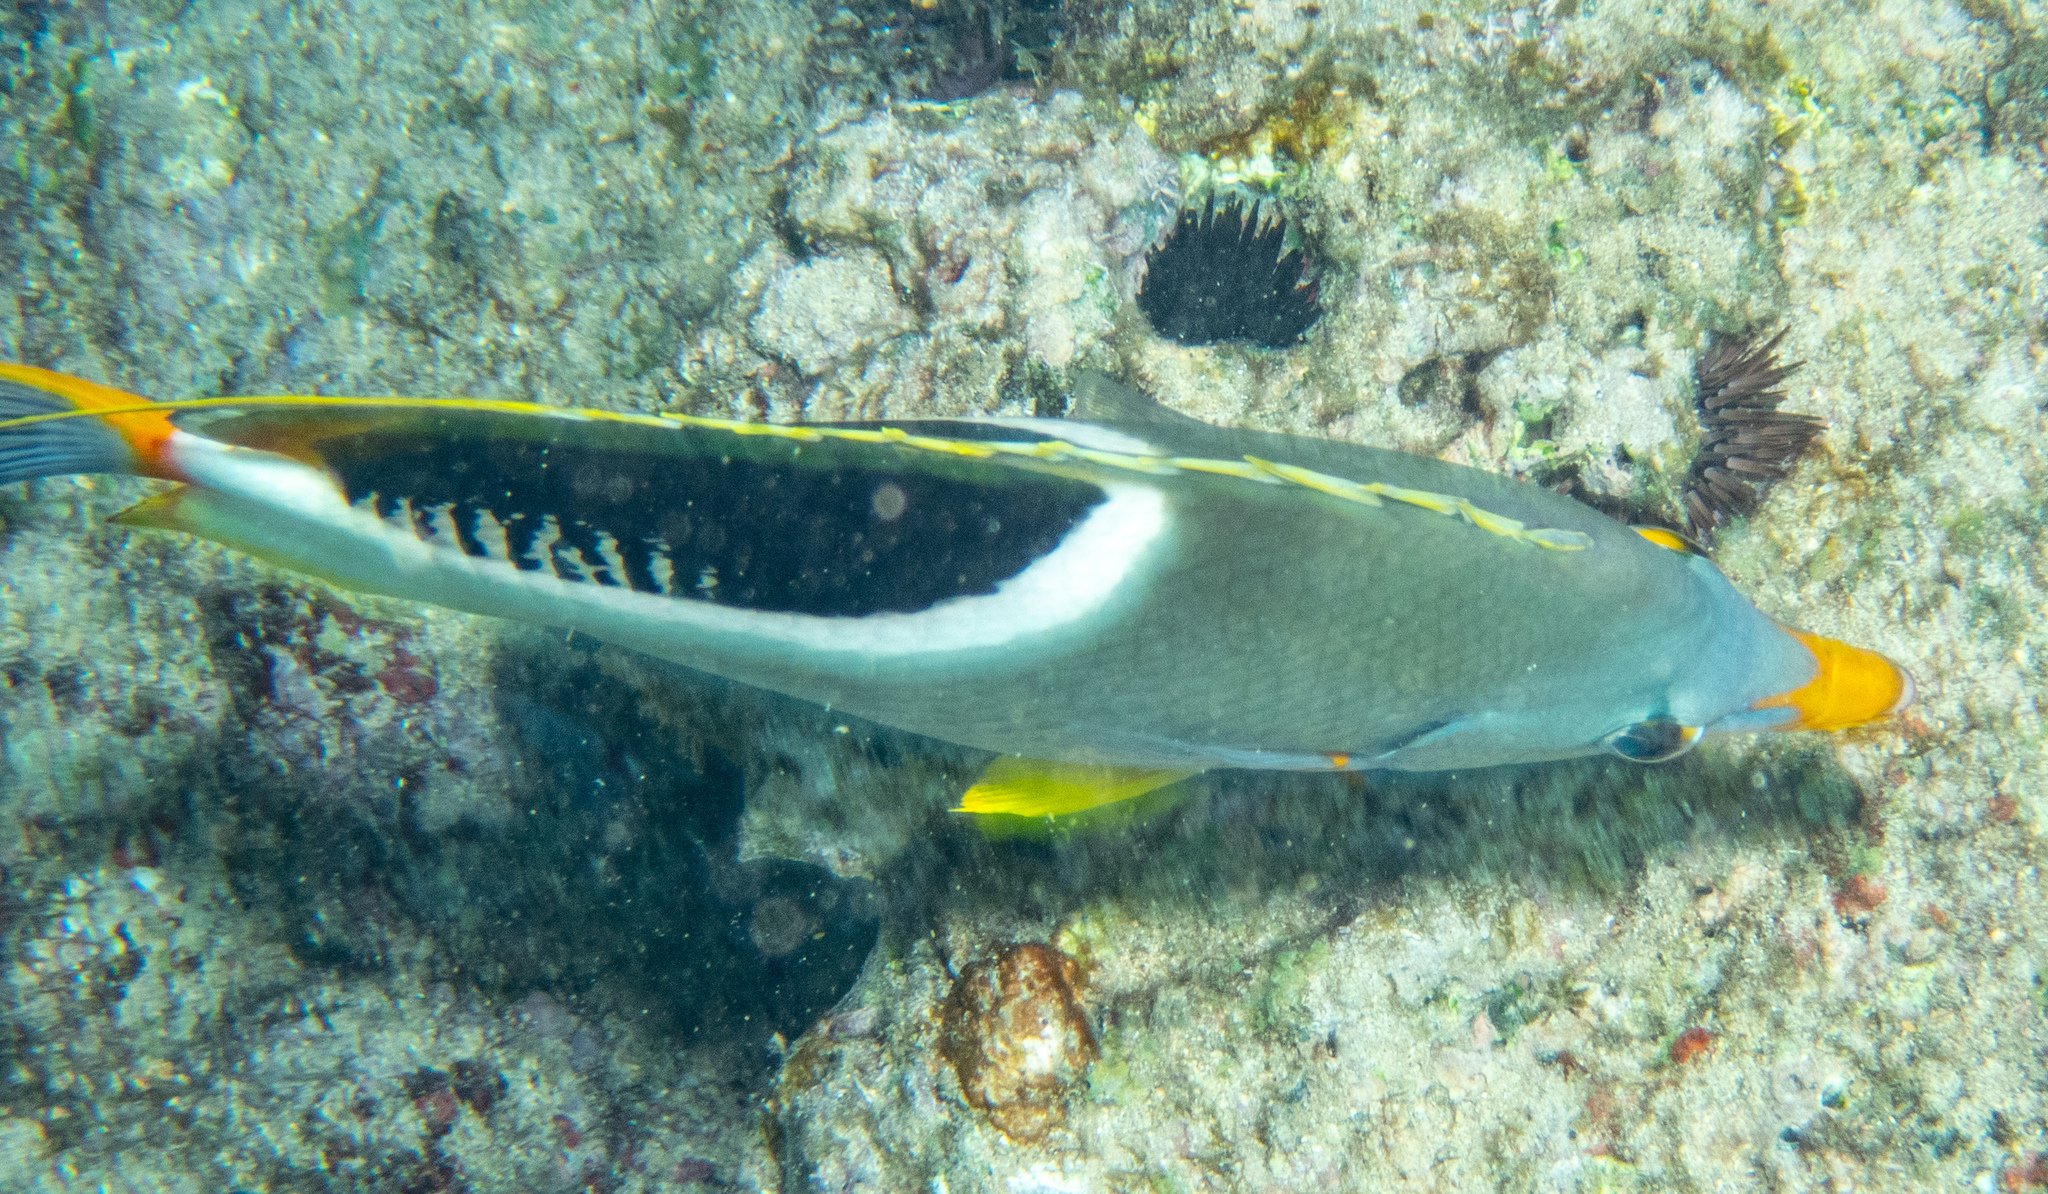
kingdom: Animalia
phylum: Chordata
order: Perciformes
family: Chaetodontidae
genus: Chaetodon
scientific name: Chaetodon ephippium
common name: Saddled butterflyfish
